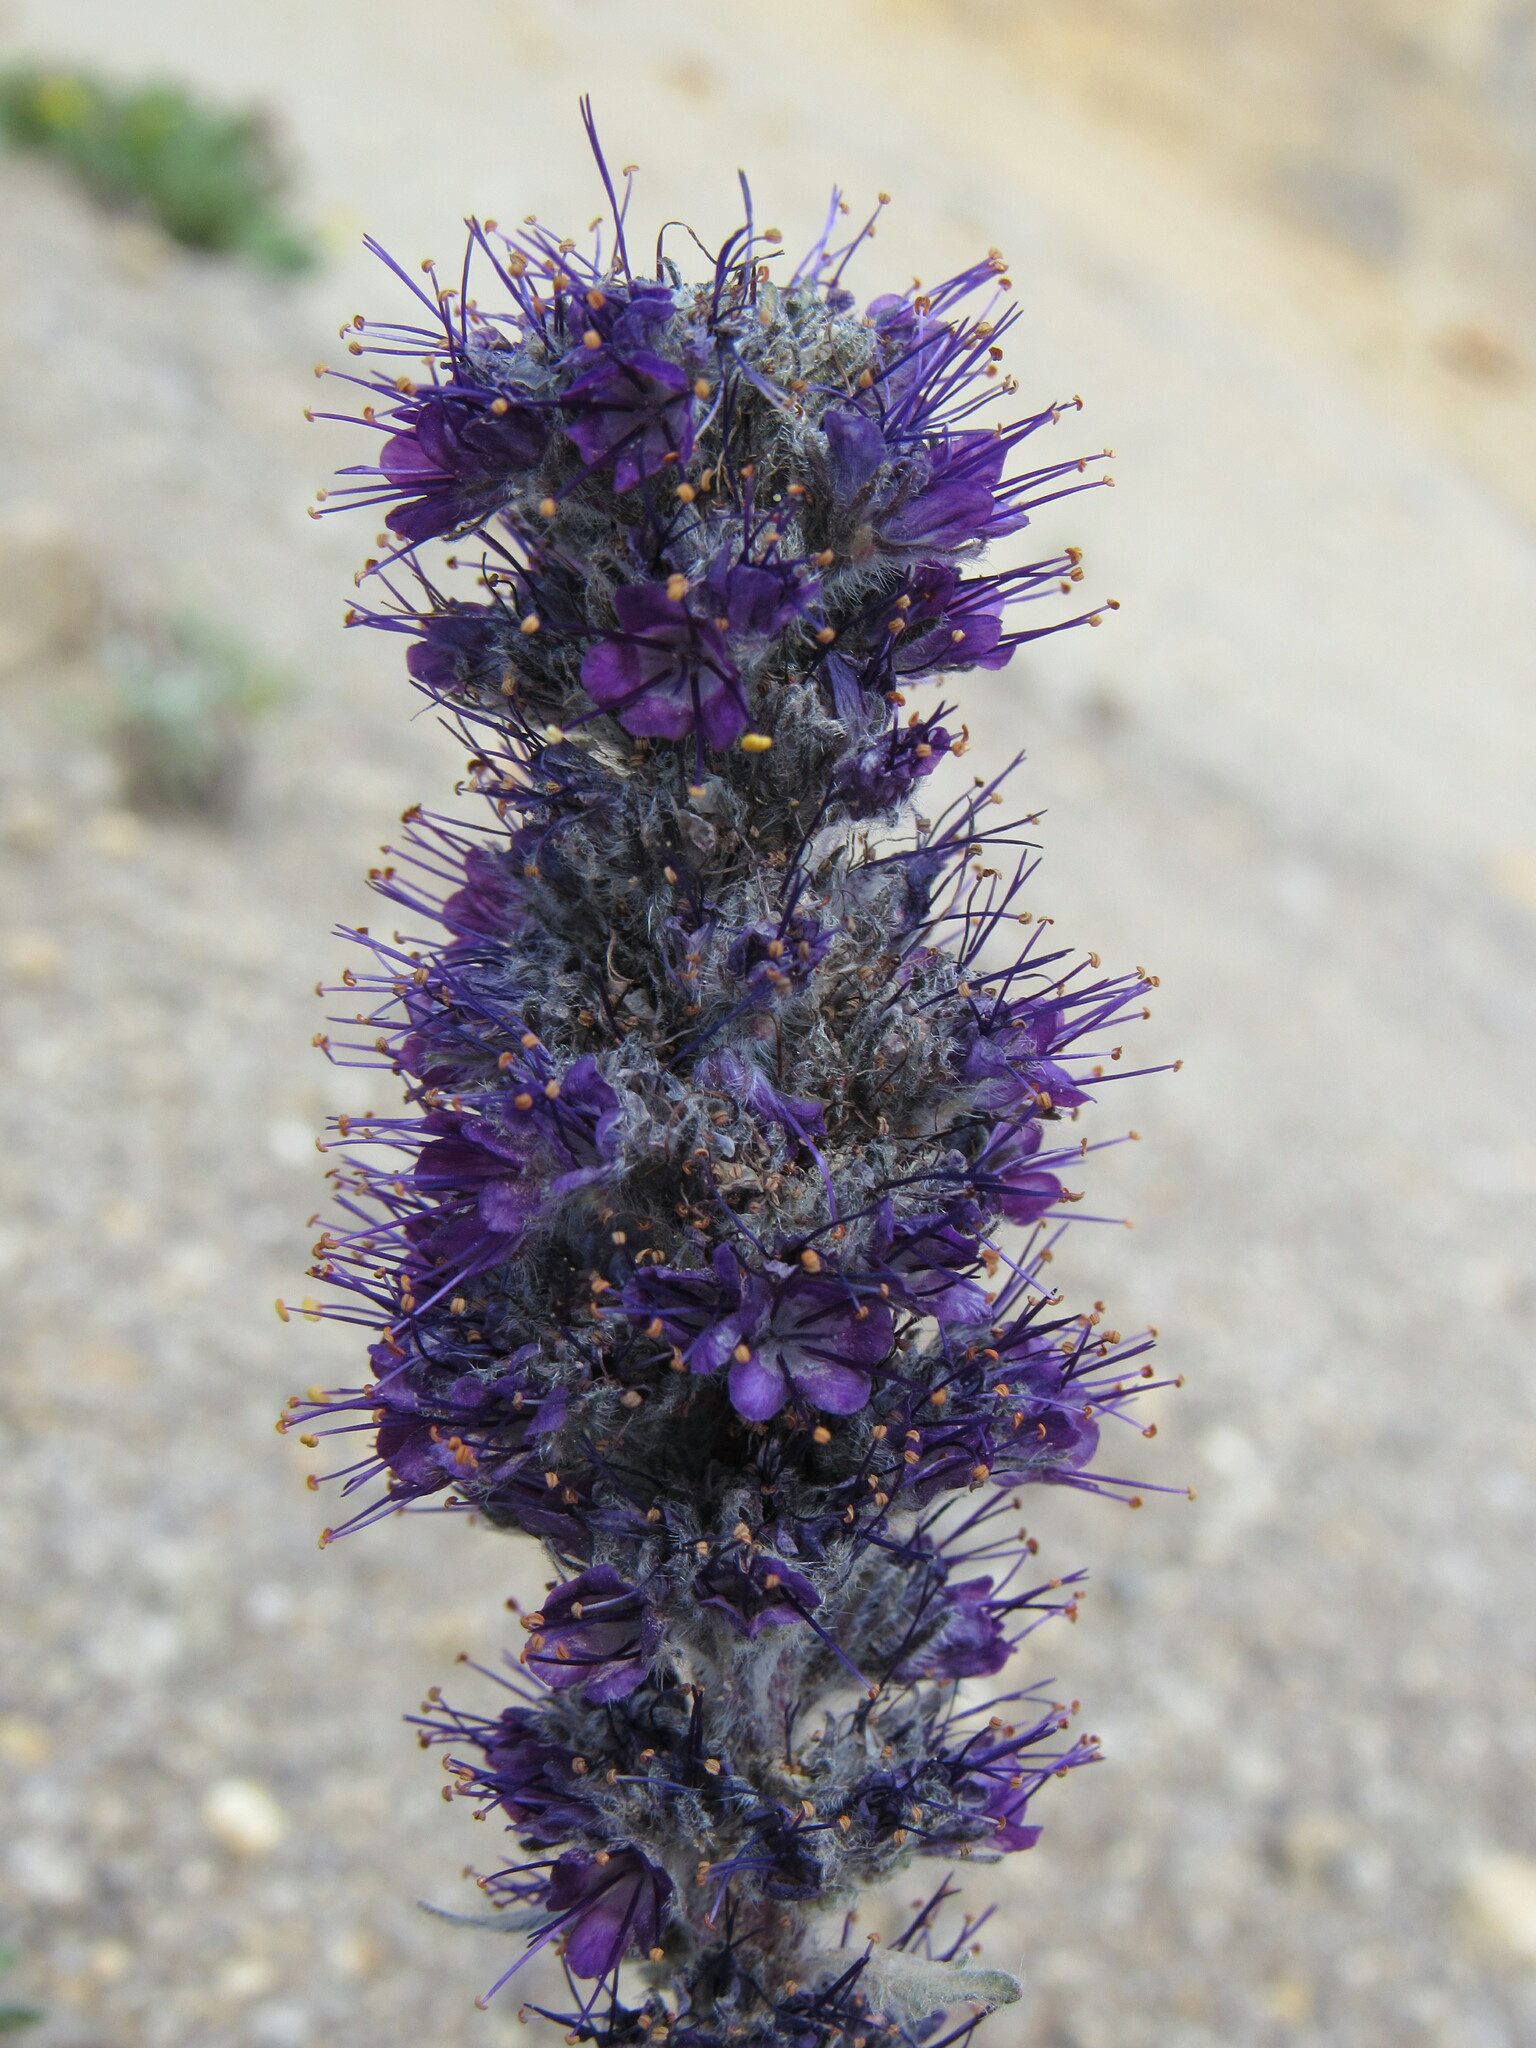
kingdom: Plantae
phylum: Tracheophyta
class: Magnoliopsida
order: Boraginales
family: Hydrophyllaceae
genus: Phacelia
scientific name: Phacelia sericea
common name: Silky phacelia
